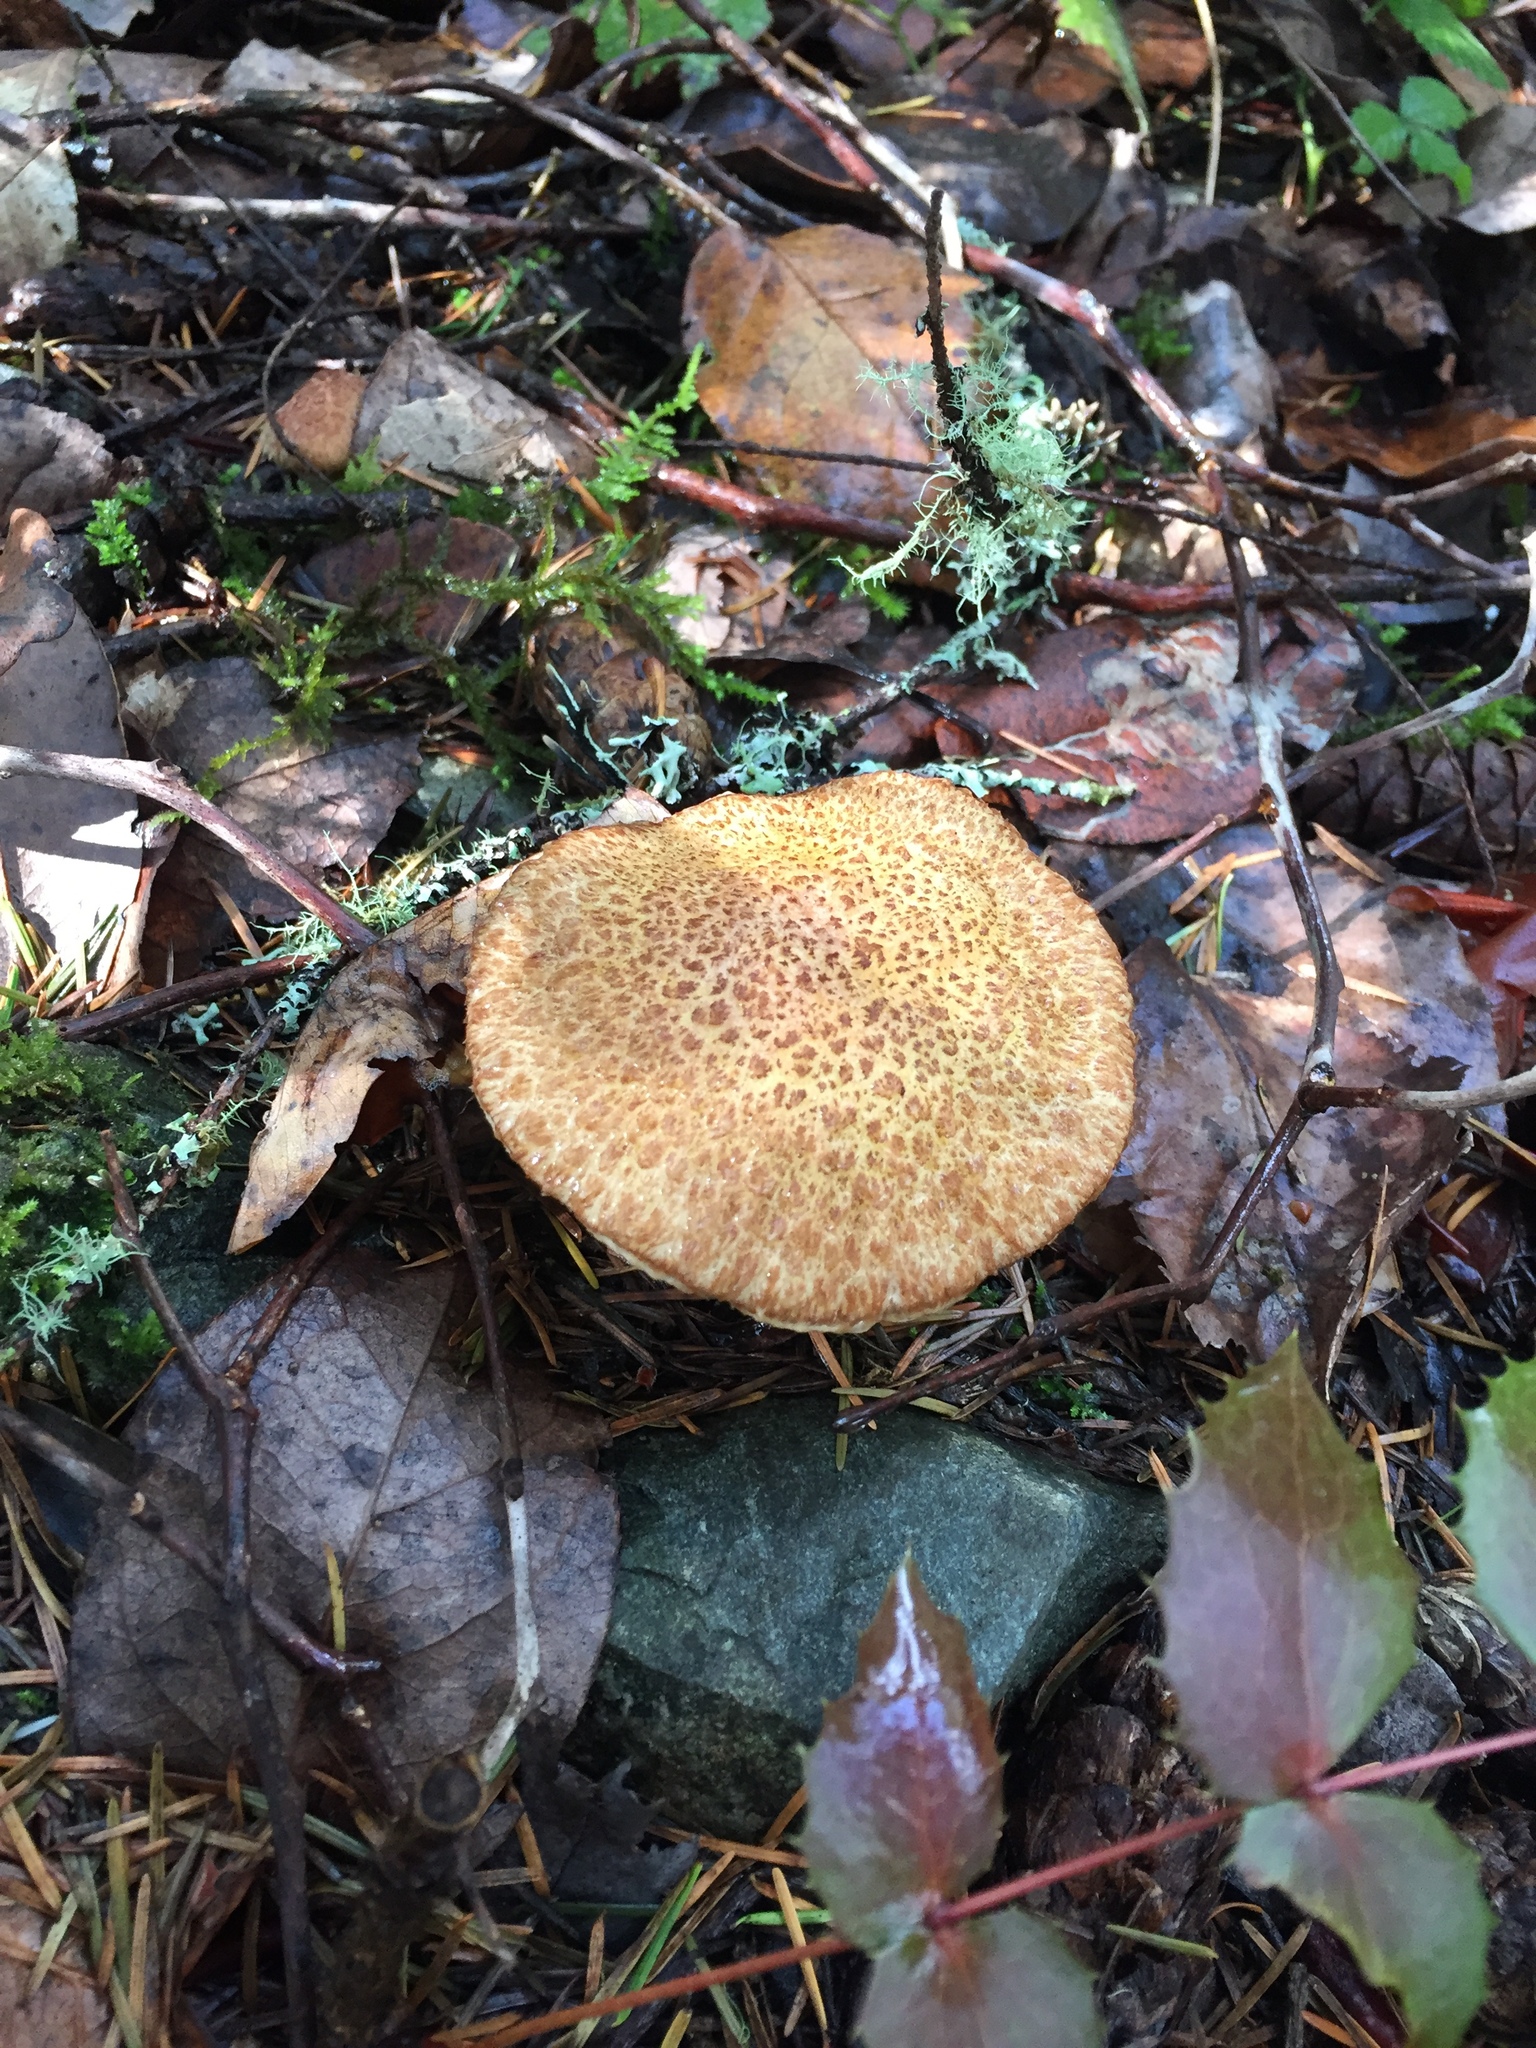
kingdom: Fungi
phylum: Basidiomycota
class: Agaricomycetes
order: Boletales
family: Suillaceae
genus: Suillus
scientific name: Suillus lakei
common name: Western painted suillus
